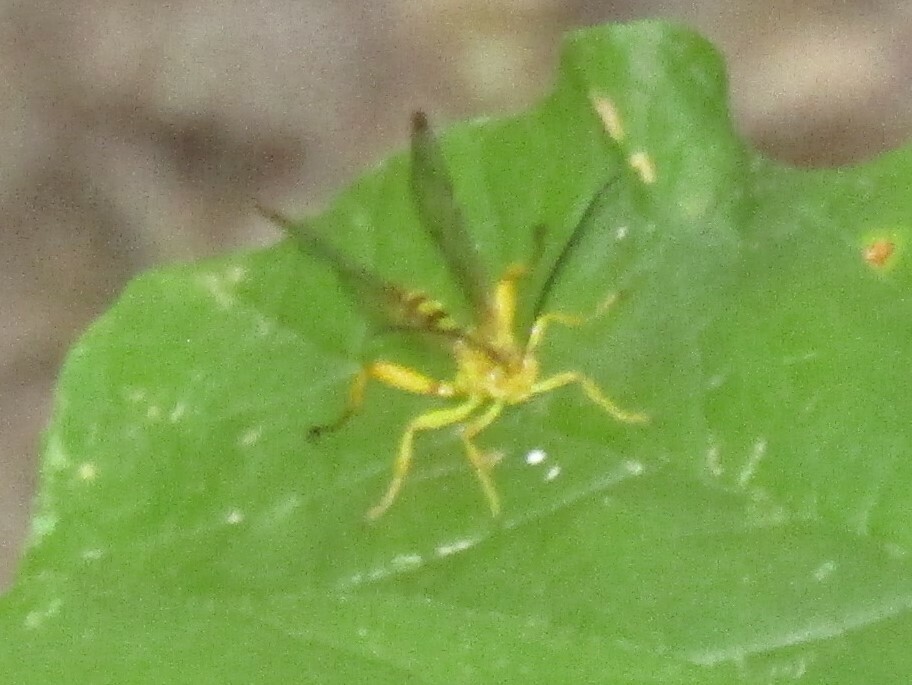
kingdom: Animalia
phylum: Arthropoda
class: Insecta
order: Hymenoptera
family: Ichneumonidae
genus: Neotheronia
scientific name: Neotheronia septemtrionalis
